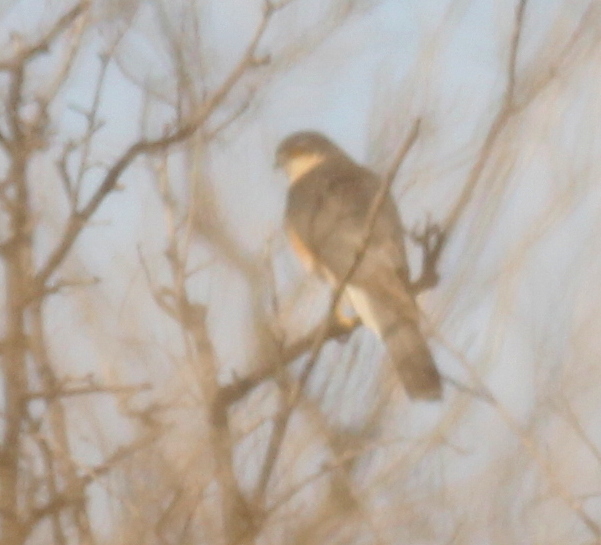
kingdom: Animalia
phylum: Chordata
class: Aves
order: Accipitriformes
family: Accipitridae
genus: Accipiter
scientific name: Accipiter nisus
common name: Eurasian sparrowhawk
